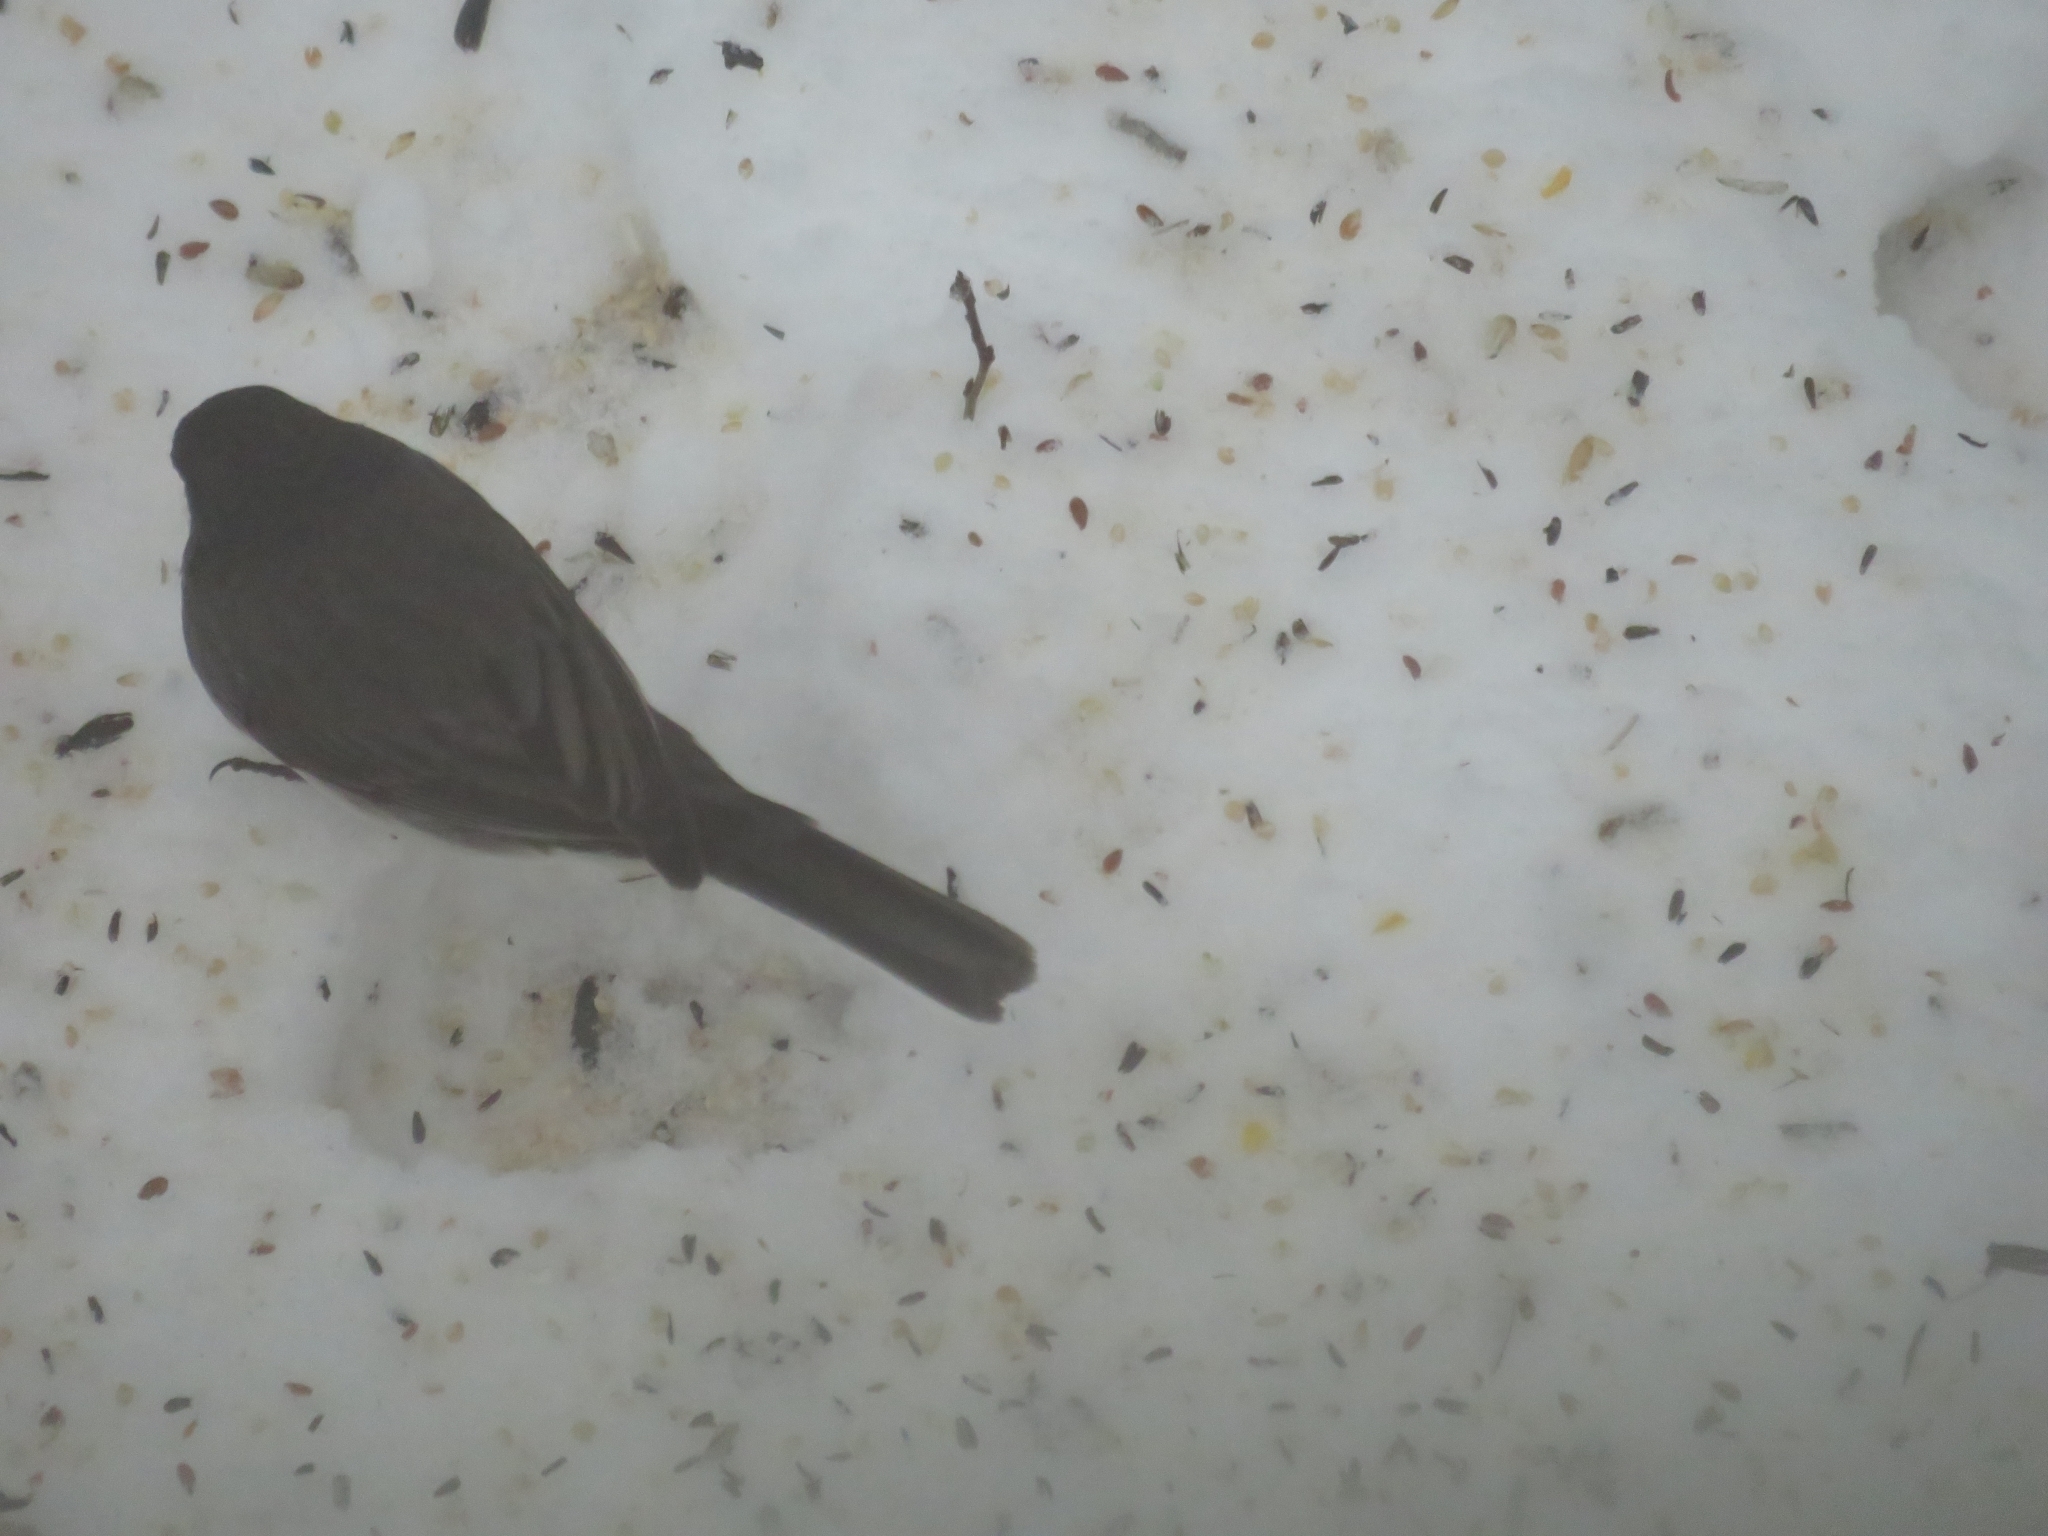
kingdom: Animalia
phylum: Chordata
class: Aves
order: Passeriformes
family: Passerellidae
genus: Junco
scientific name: Junco hyemalis
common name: Dark-eyed junco
